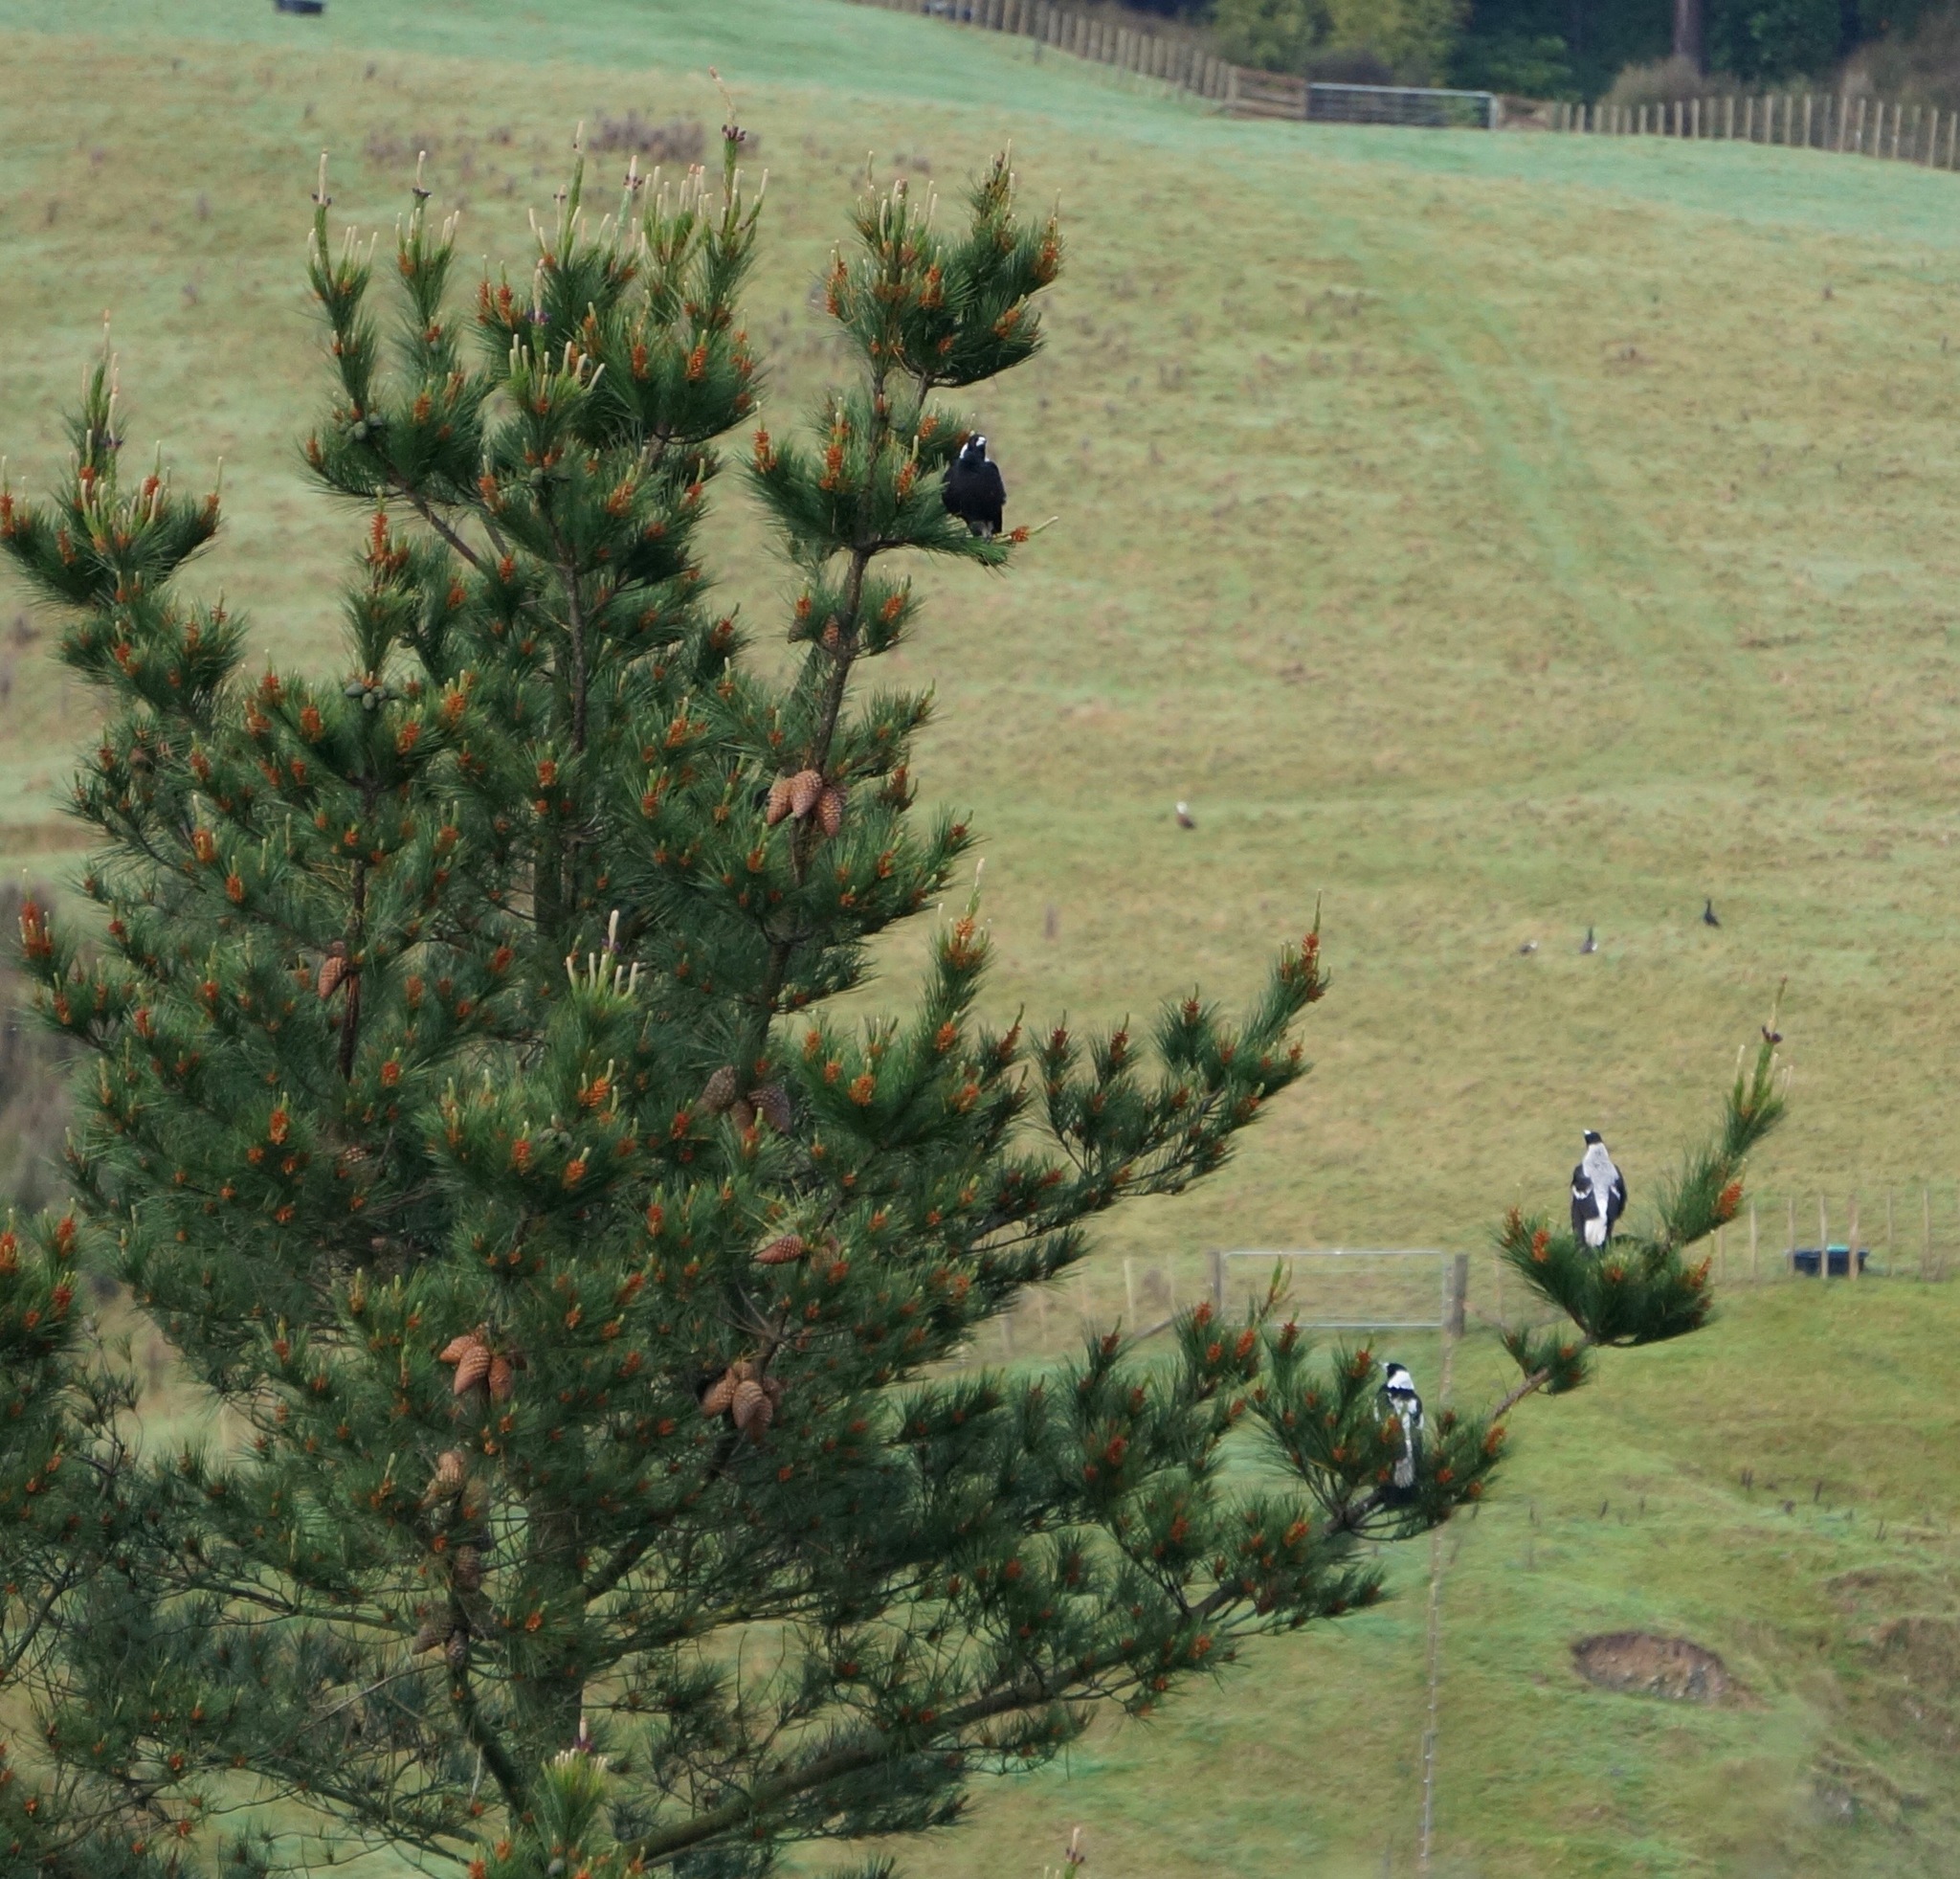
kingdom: Animalia
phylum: Chordata
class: Aves
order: Passeriformes
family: Cracticidae
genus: Gymnorhina
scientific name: Gymnorhina tibicen
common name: Australian magpie
